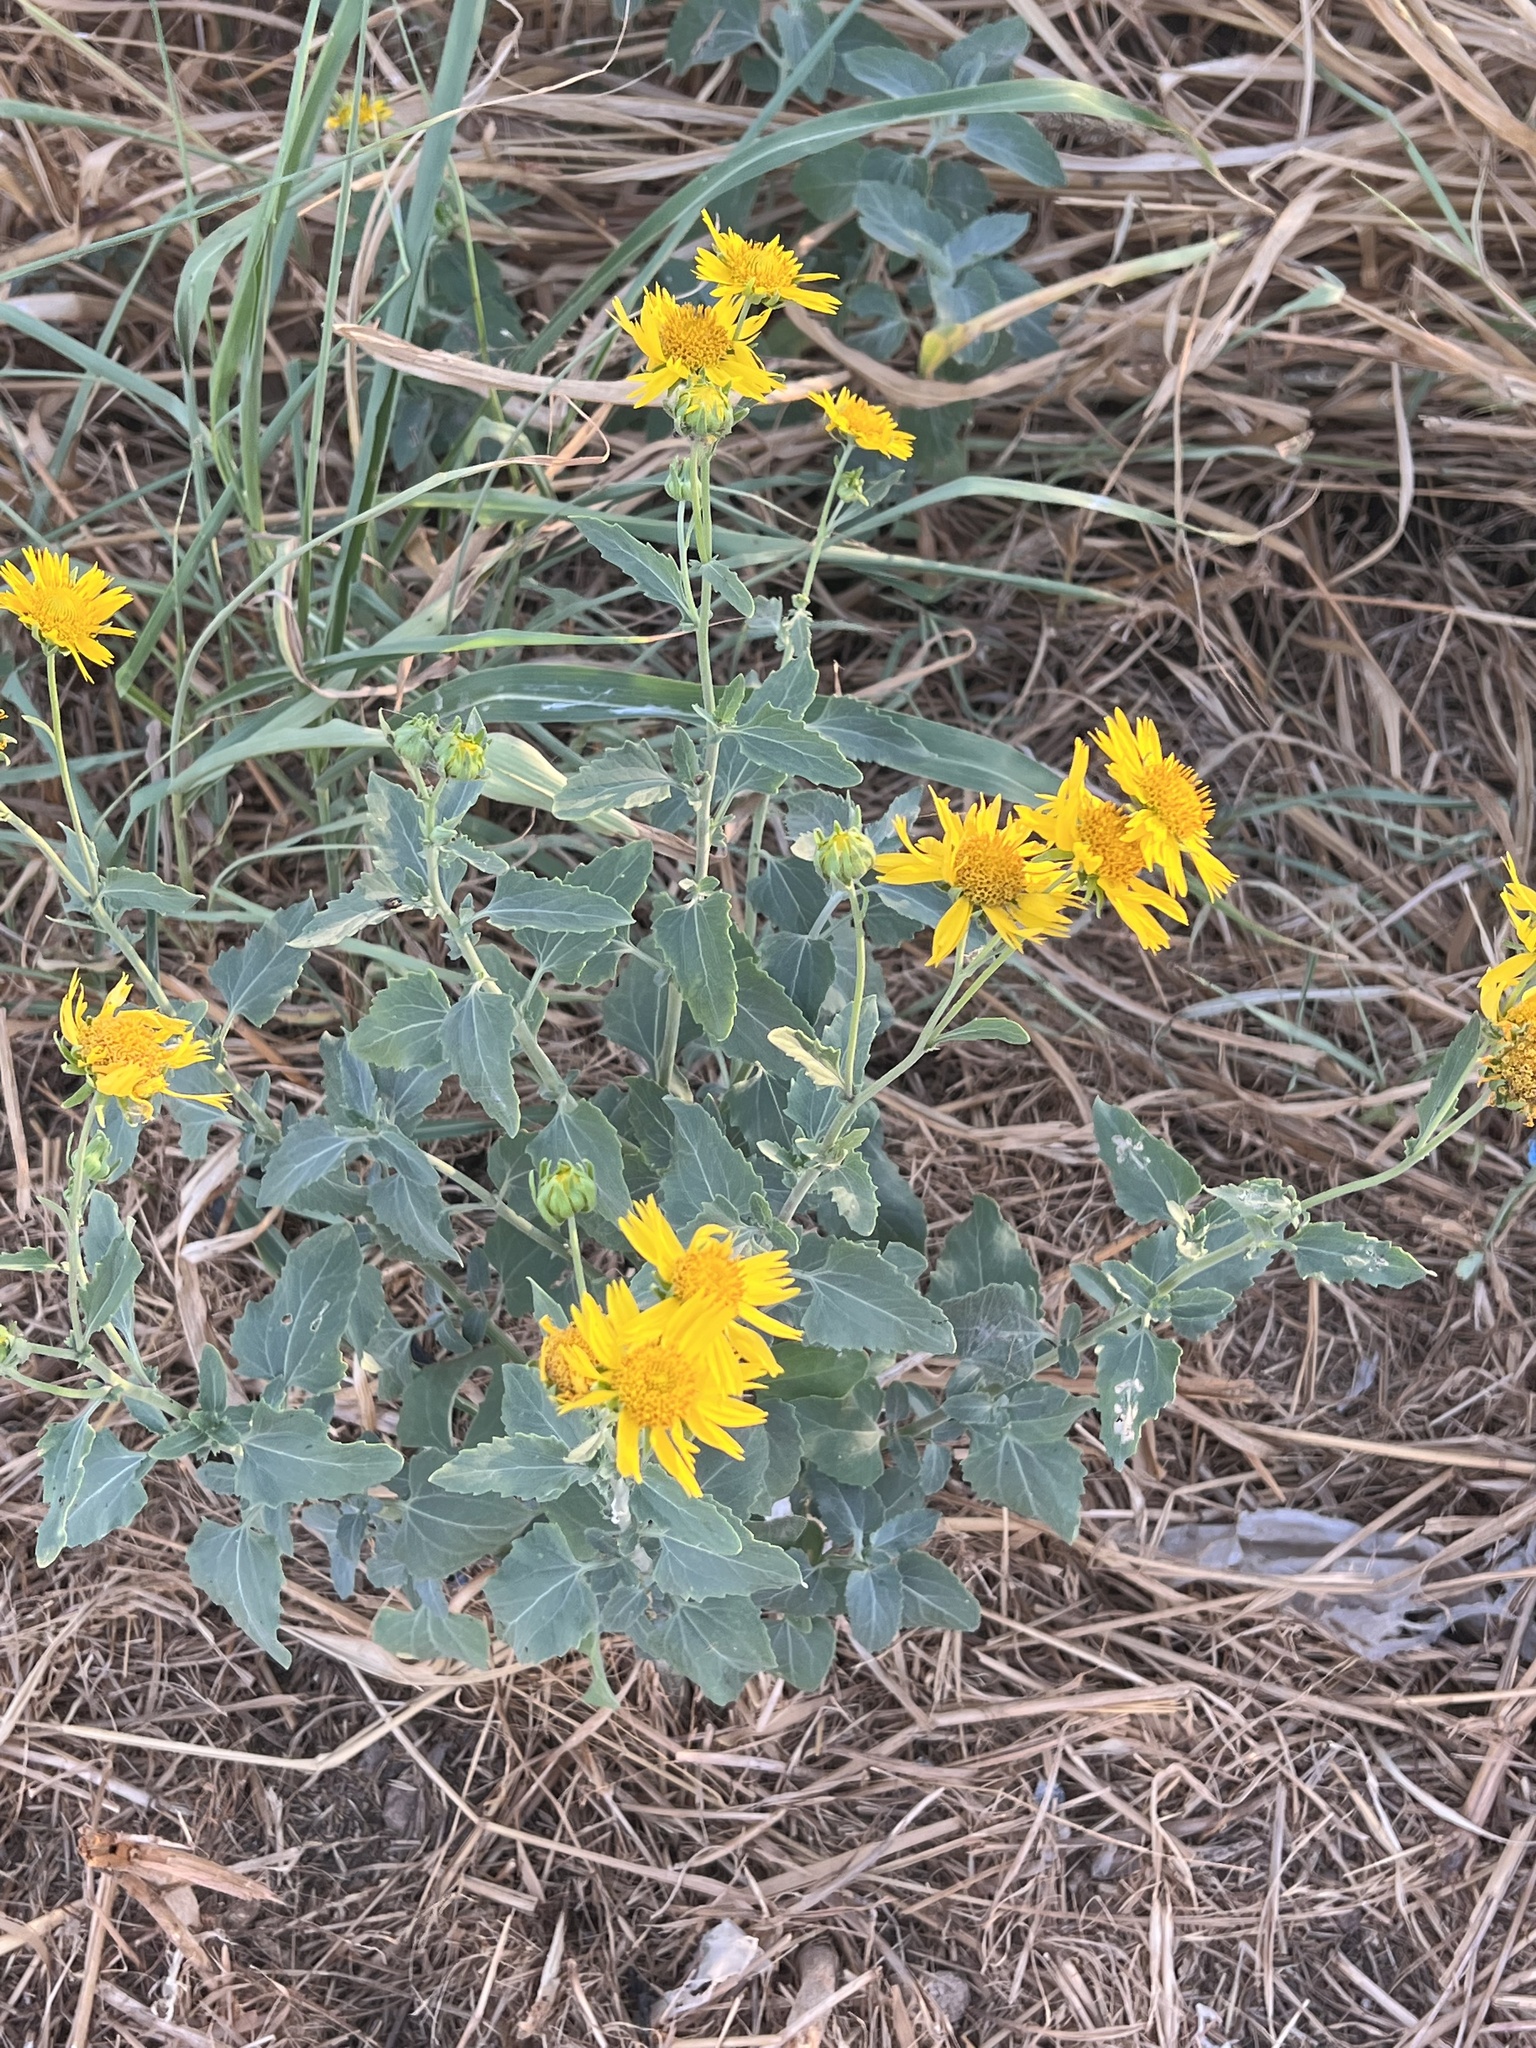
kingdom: Plantae
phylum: Tracheophyta
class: Magnoliopsida
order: Asterales
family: Asteraceae
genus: Verbesina
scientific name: Verbesina encelioides
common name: Golden crownbeard
